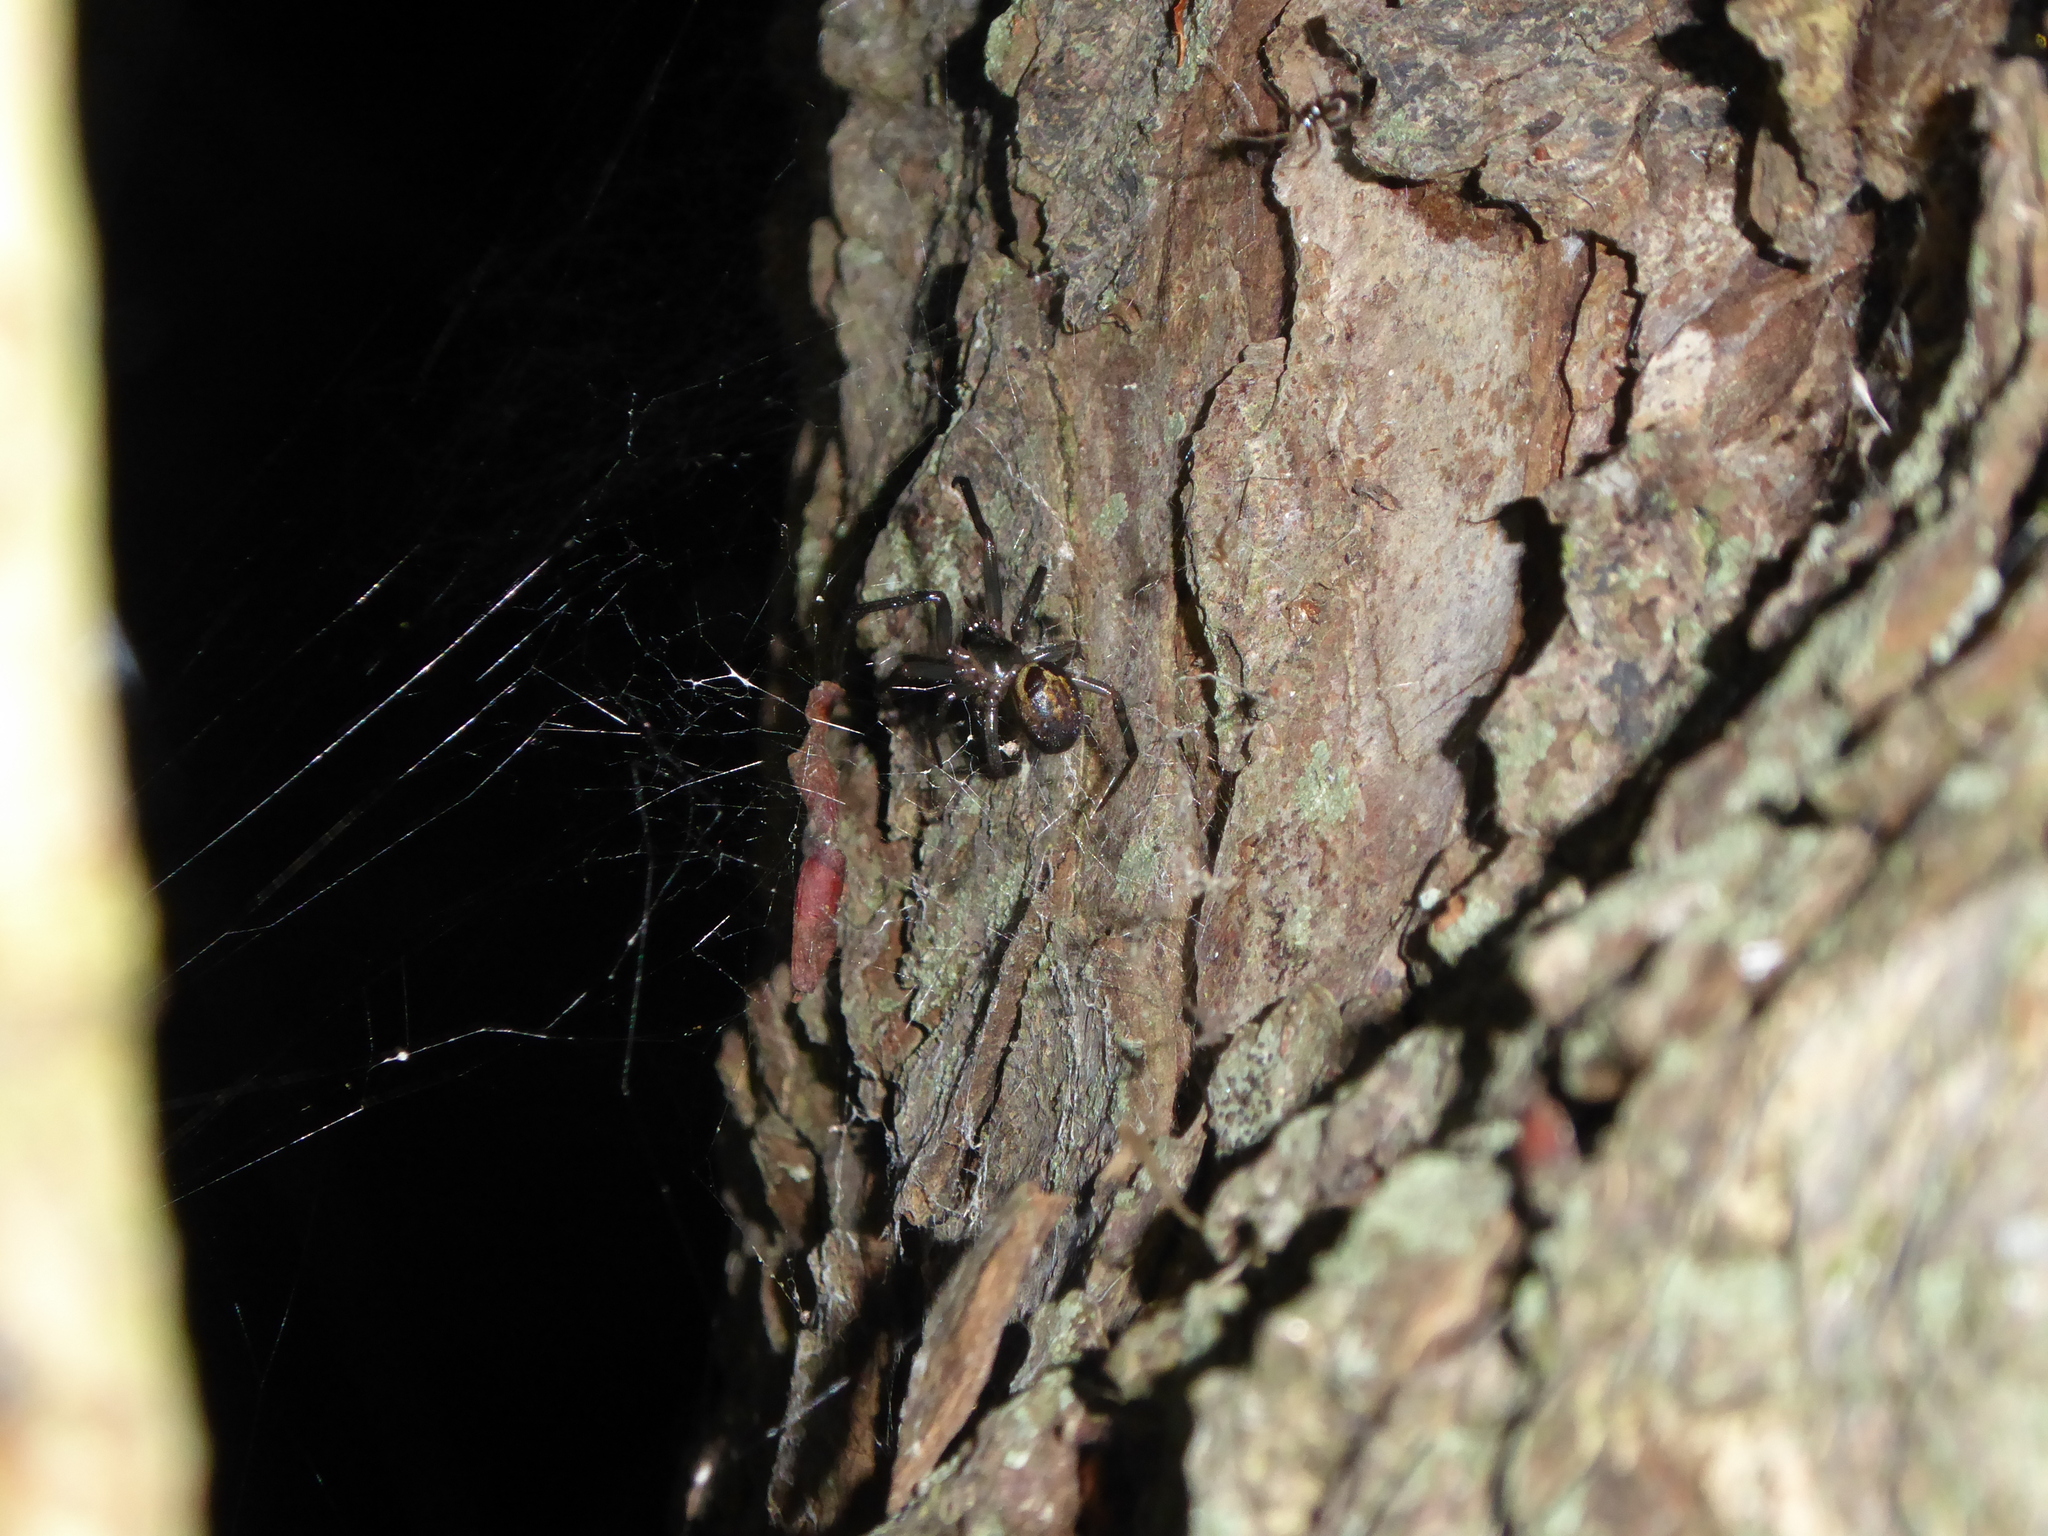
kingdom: Animalia
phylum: Arthropoda
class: Arachnida
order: Araneae
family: Theridiidae
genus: Steatoda
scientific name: Steatoda nobilis
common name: Cobweb weaver
